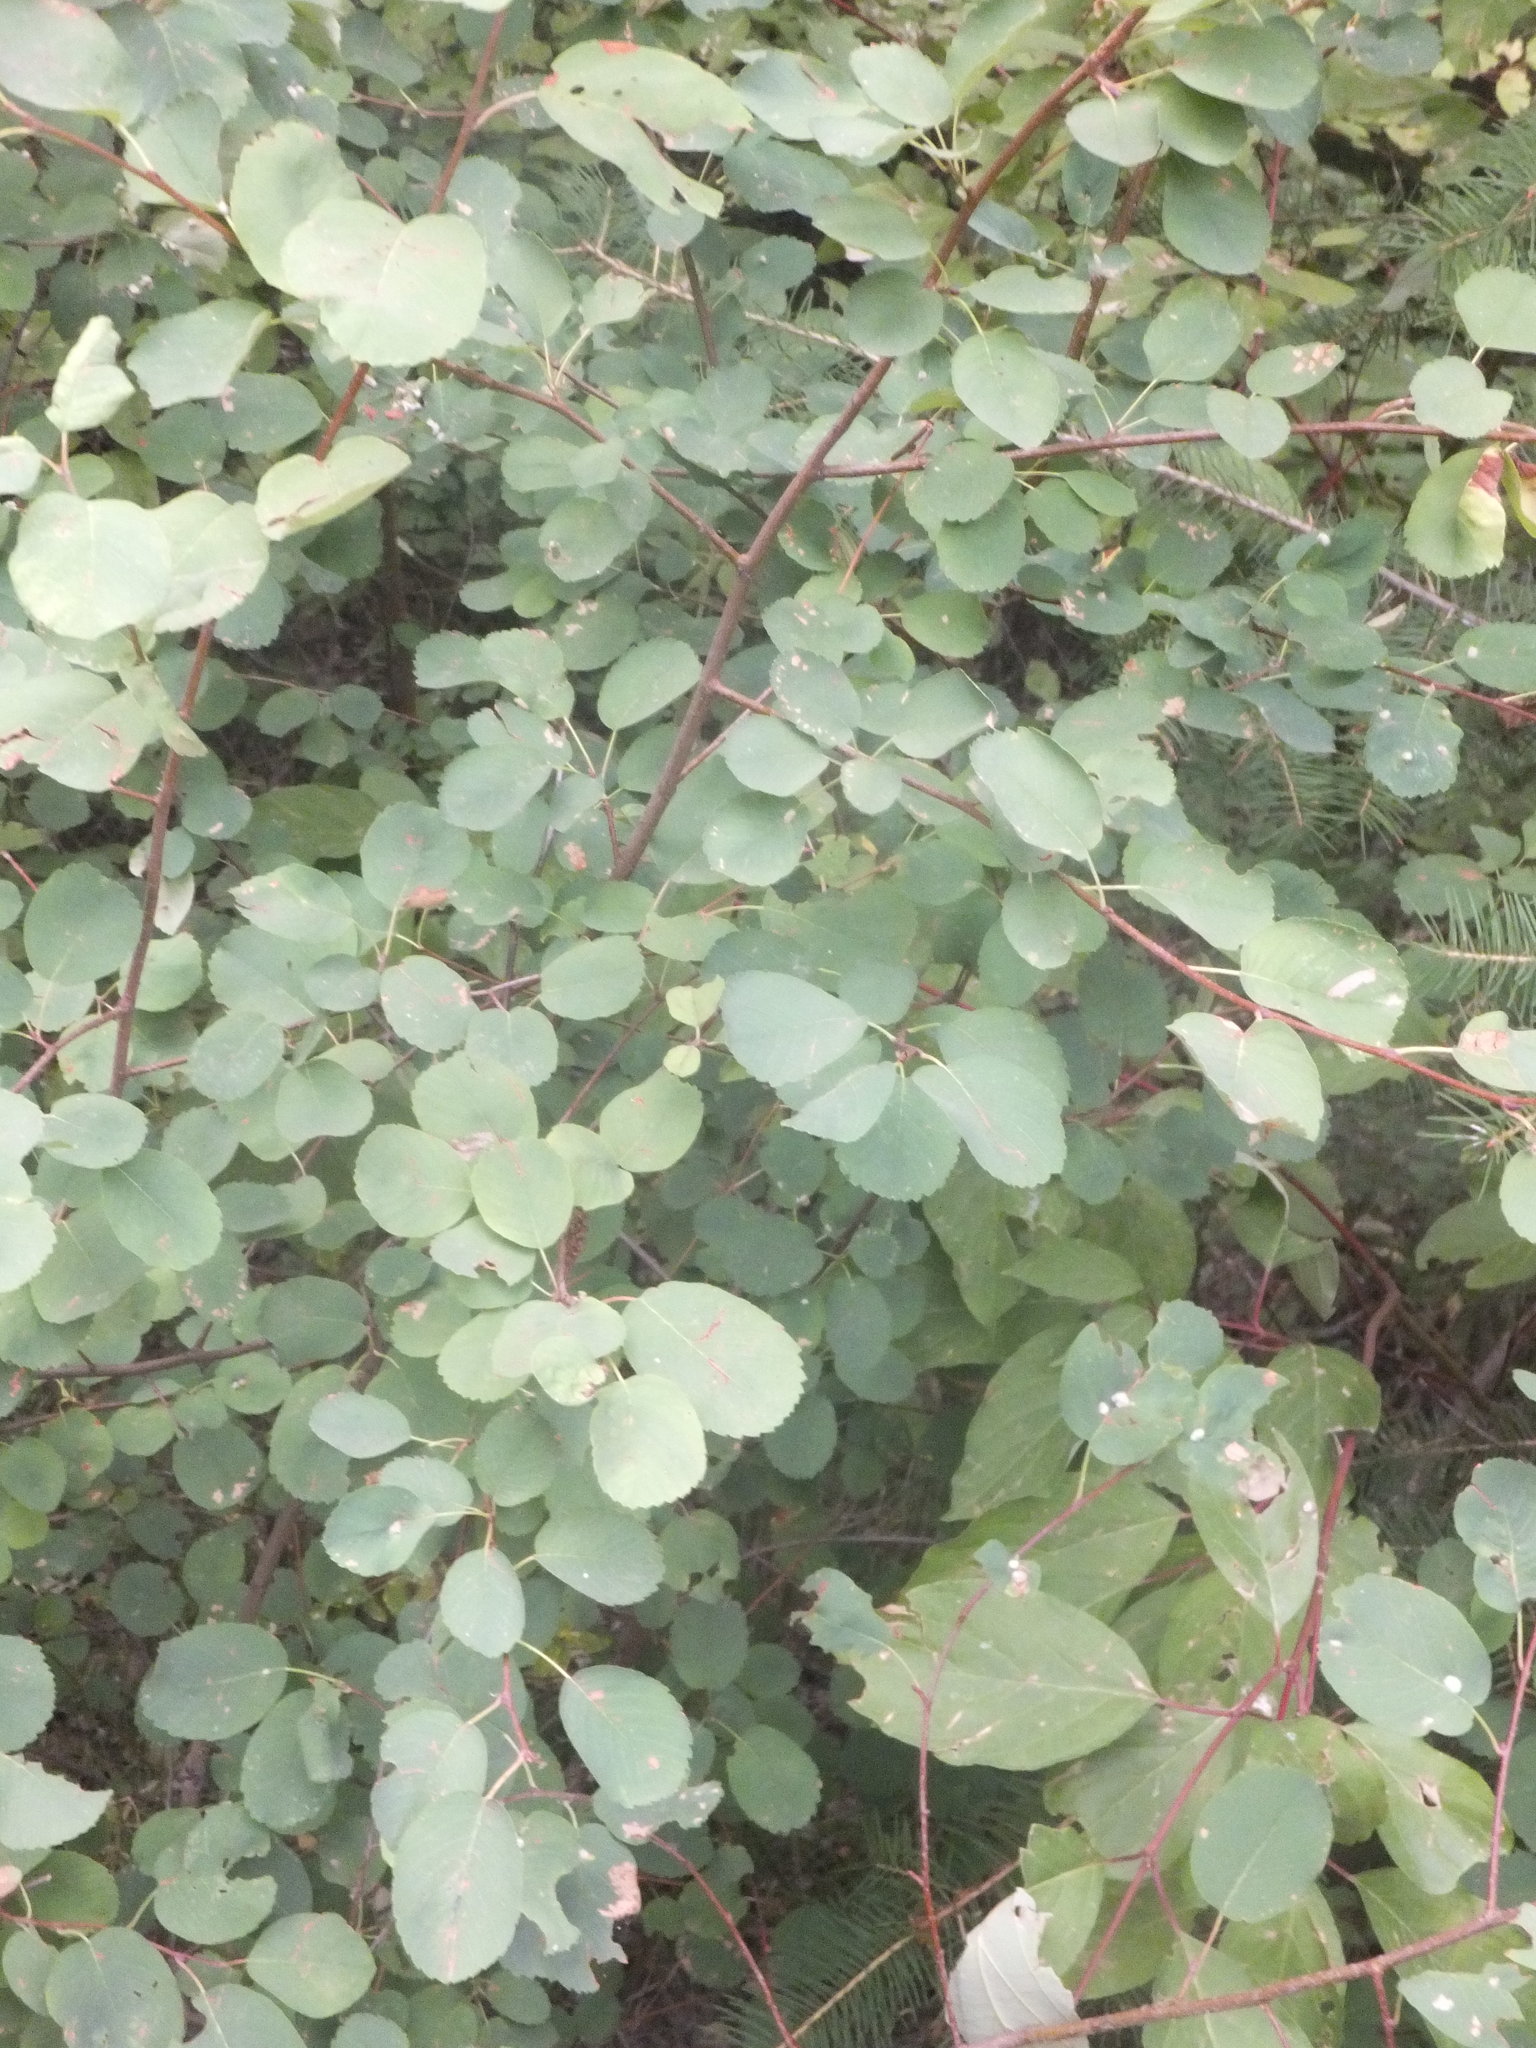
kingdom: Plantae
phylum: Tracheophyta
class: Magnoliopsida
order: Rosales
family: Rosaceae
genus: Amelanchier
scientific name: Amelanchier alnifolia
